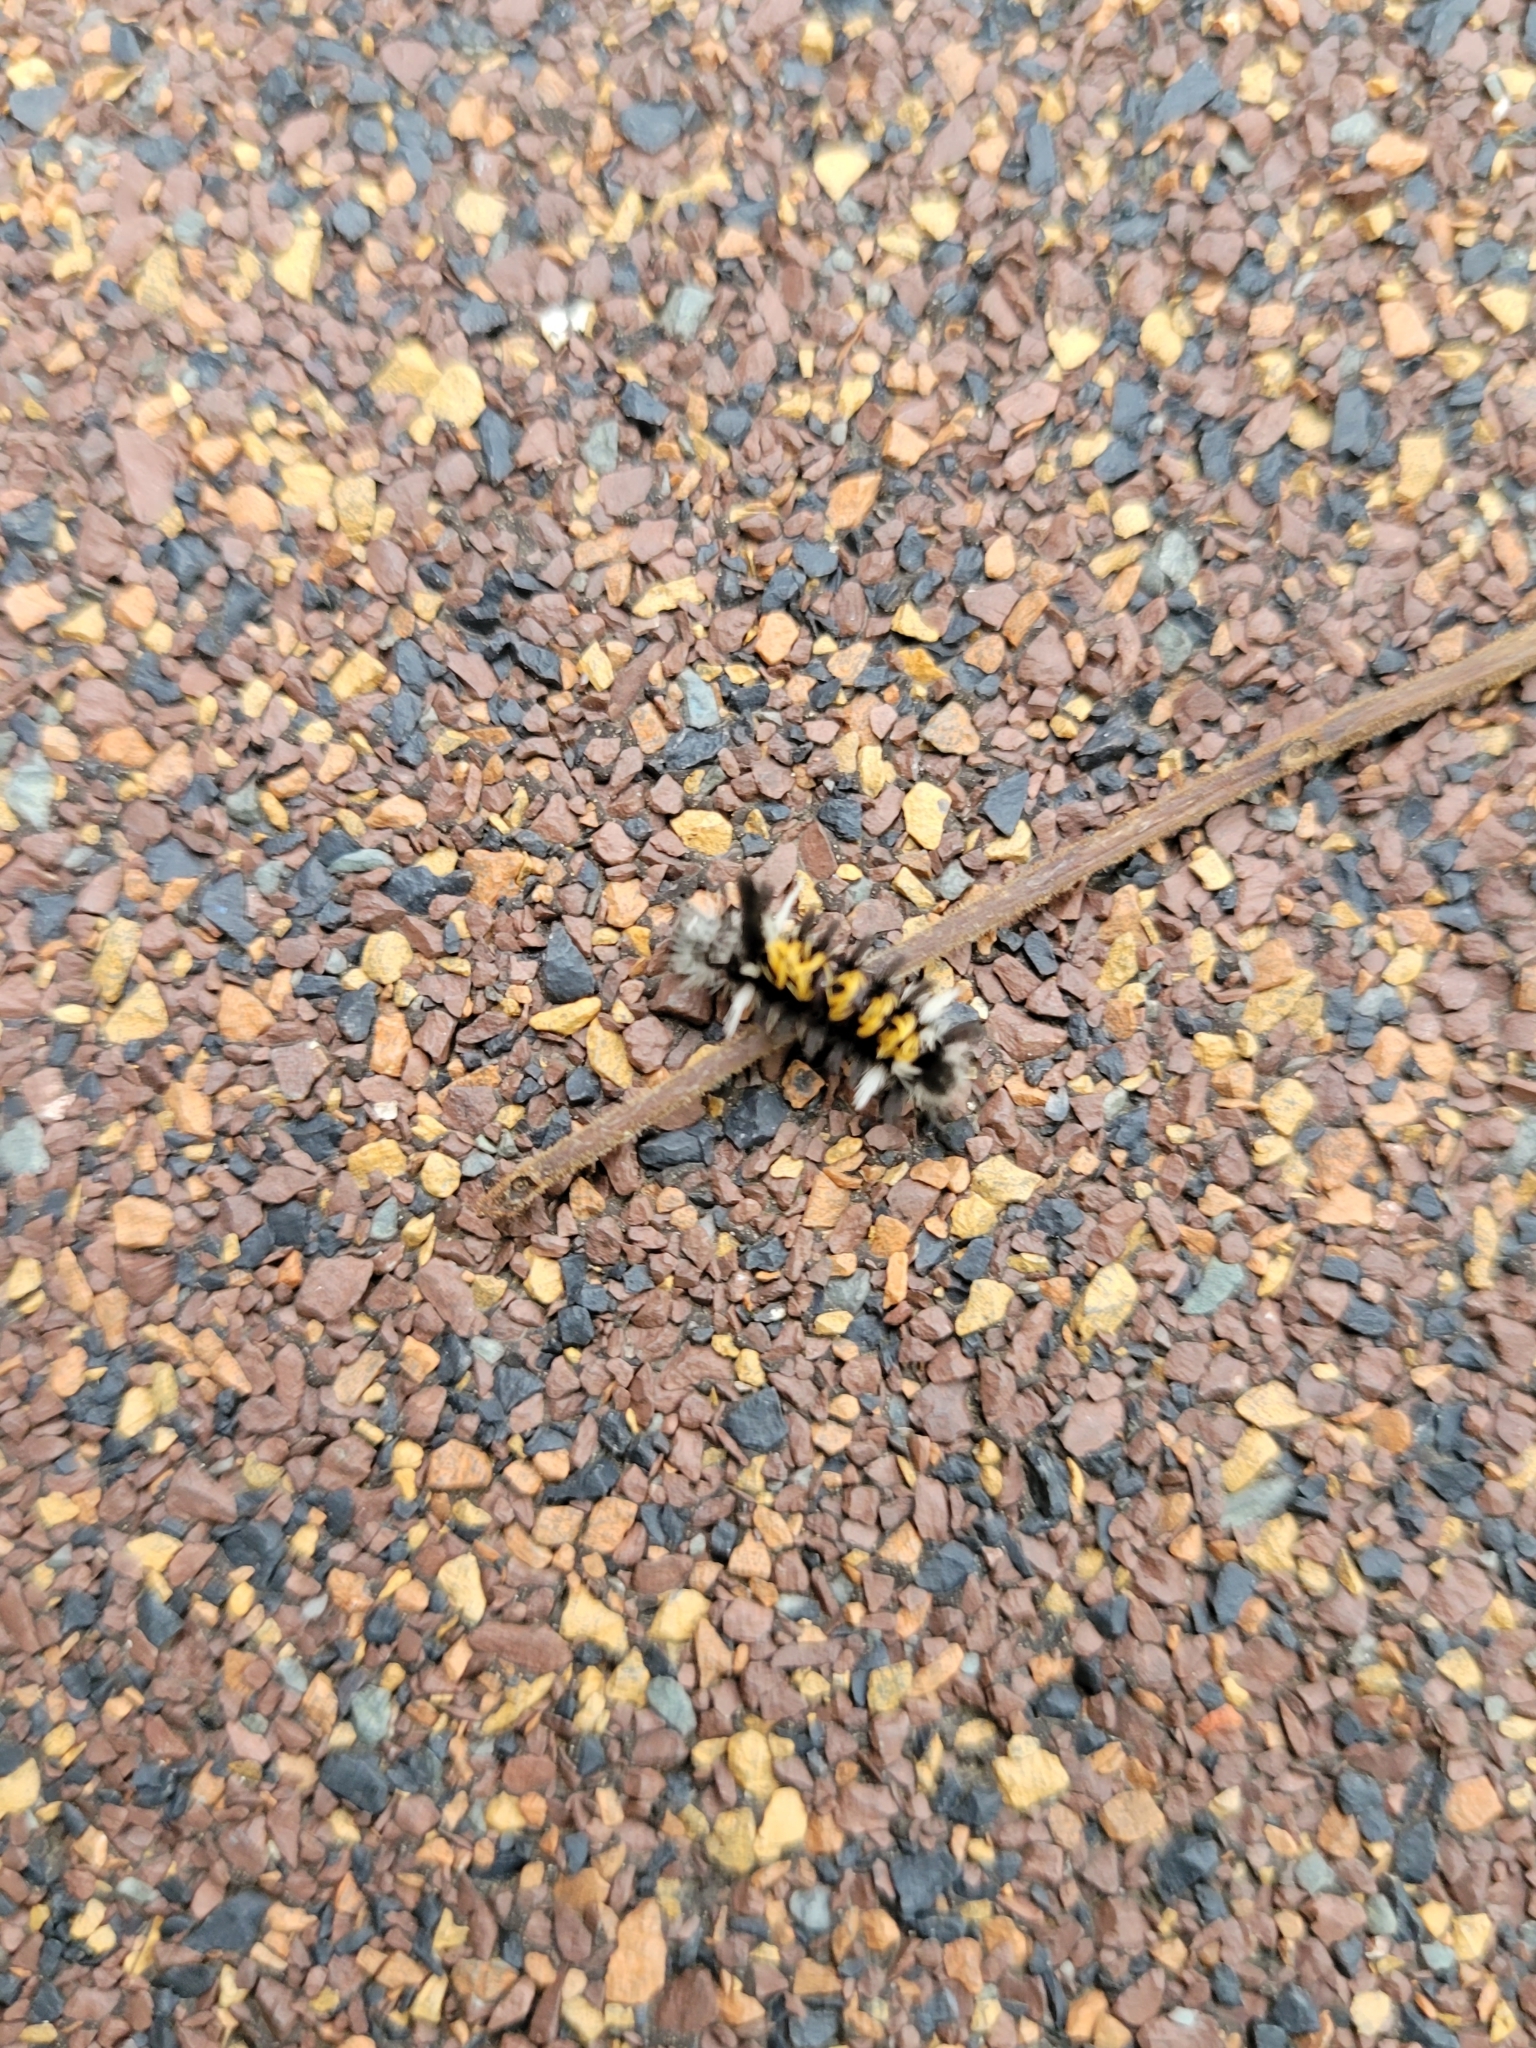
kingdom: Animalia
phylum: Arthropoda
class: Insecta
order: Lepidoptera
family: Erebidae
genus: Euchaetes
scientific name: Euchaetes egle
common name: Milkweed tussock moth
